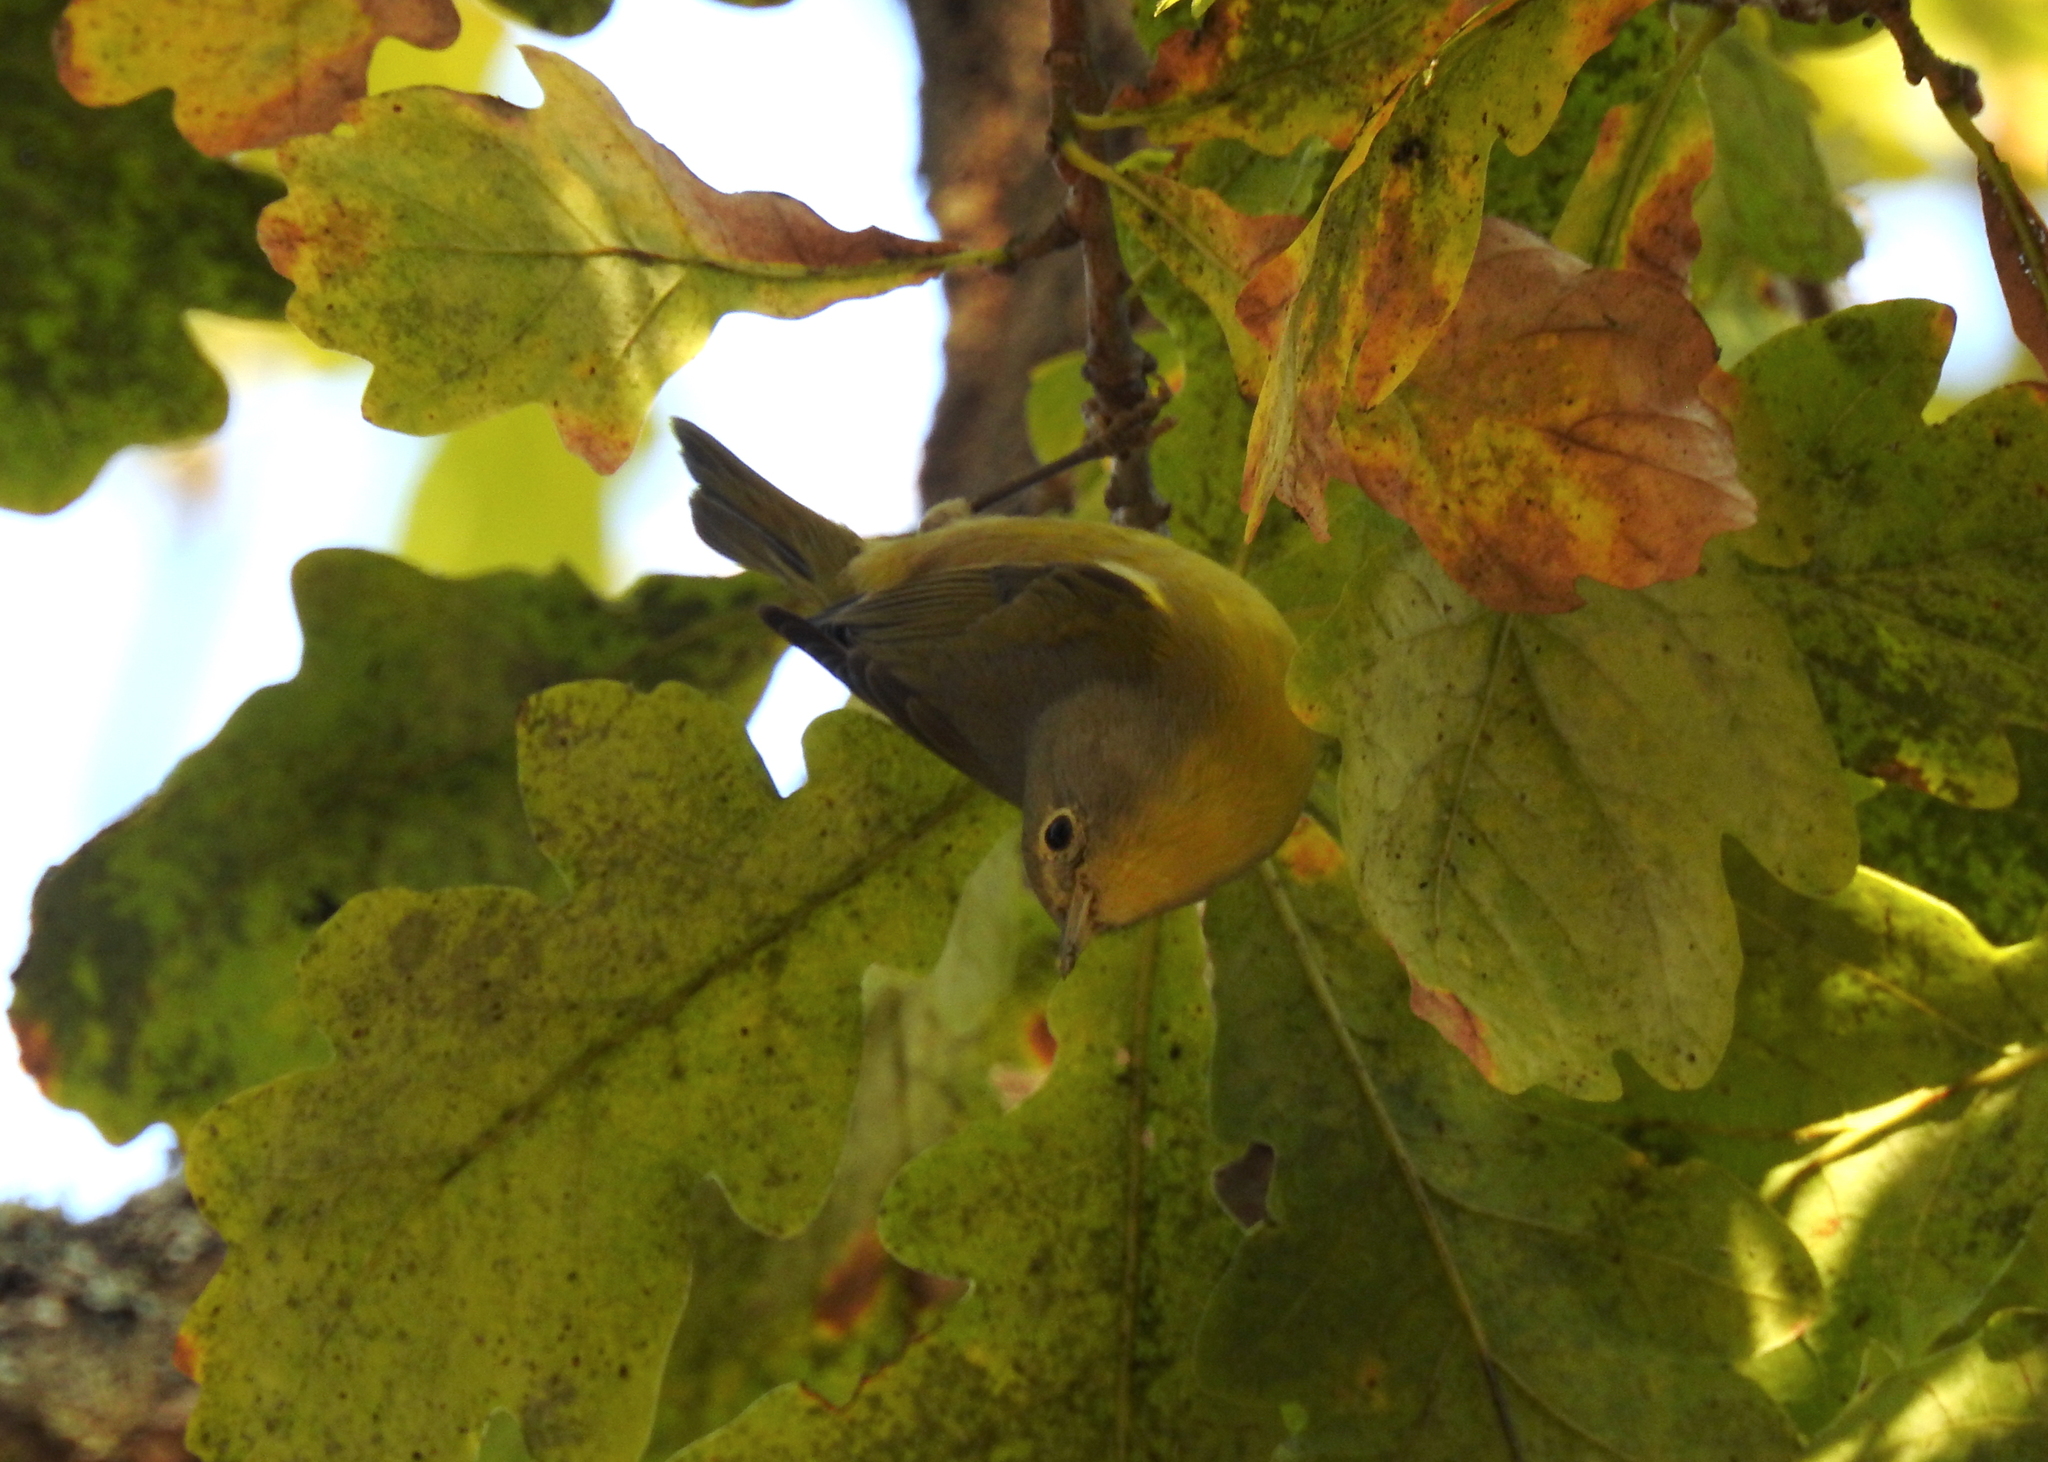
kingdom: Animalia
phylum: Chordata
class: Aves
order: Passeriformes
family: Parulidae
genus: Leiothlypis
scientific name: Leiothlypis ruficapilla
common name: Nashville warbler
